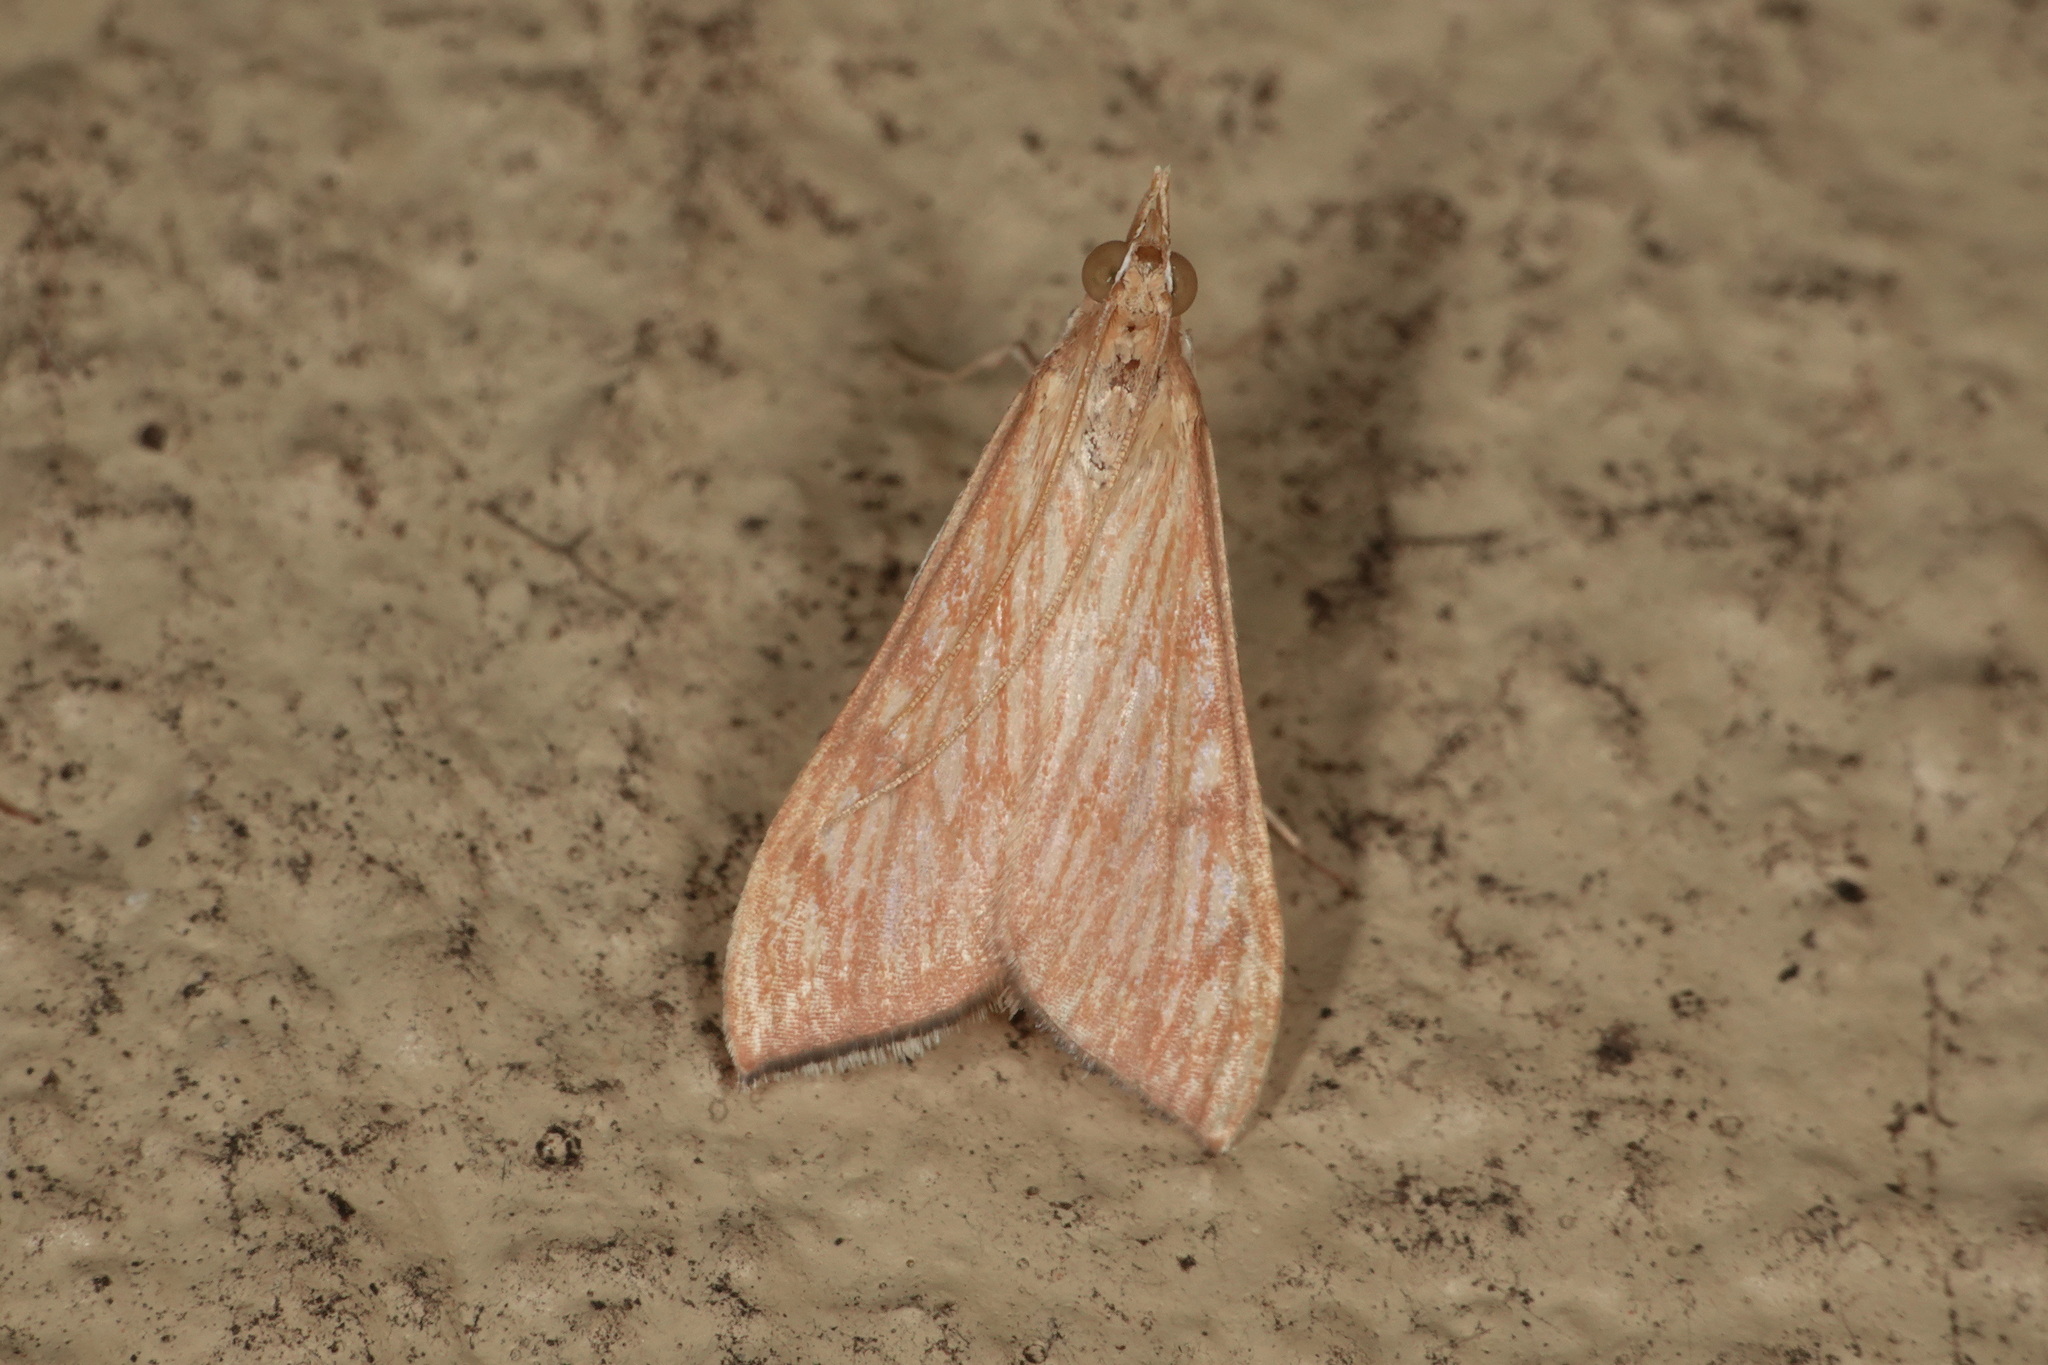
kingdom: Animalia
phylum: Arthropoda
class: Insecta
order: Lepidoptera
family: Crambidae
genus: Antigastra
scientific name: Antigastra catalaunalis
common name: Spanish dot
